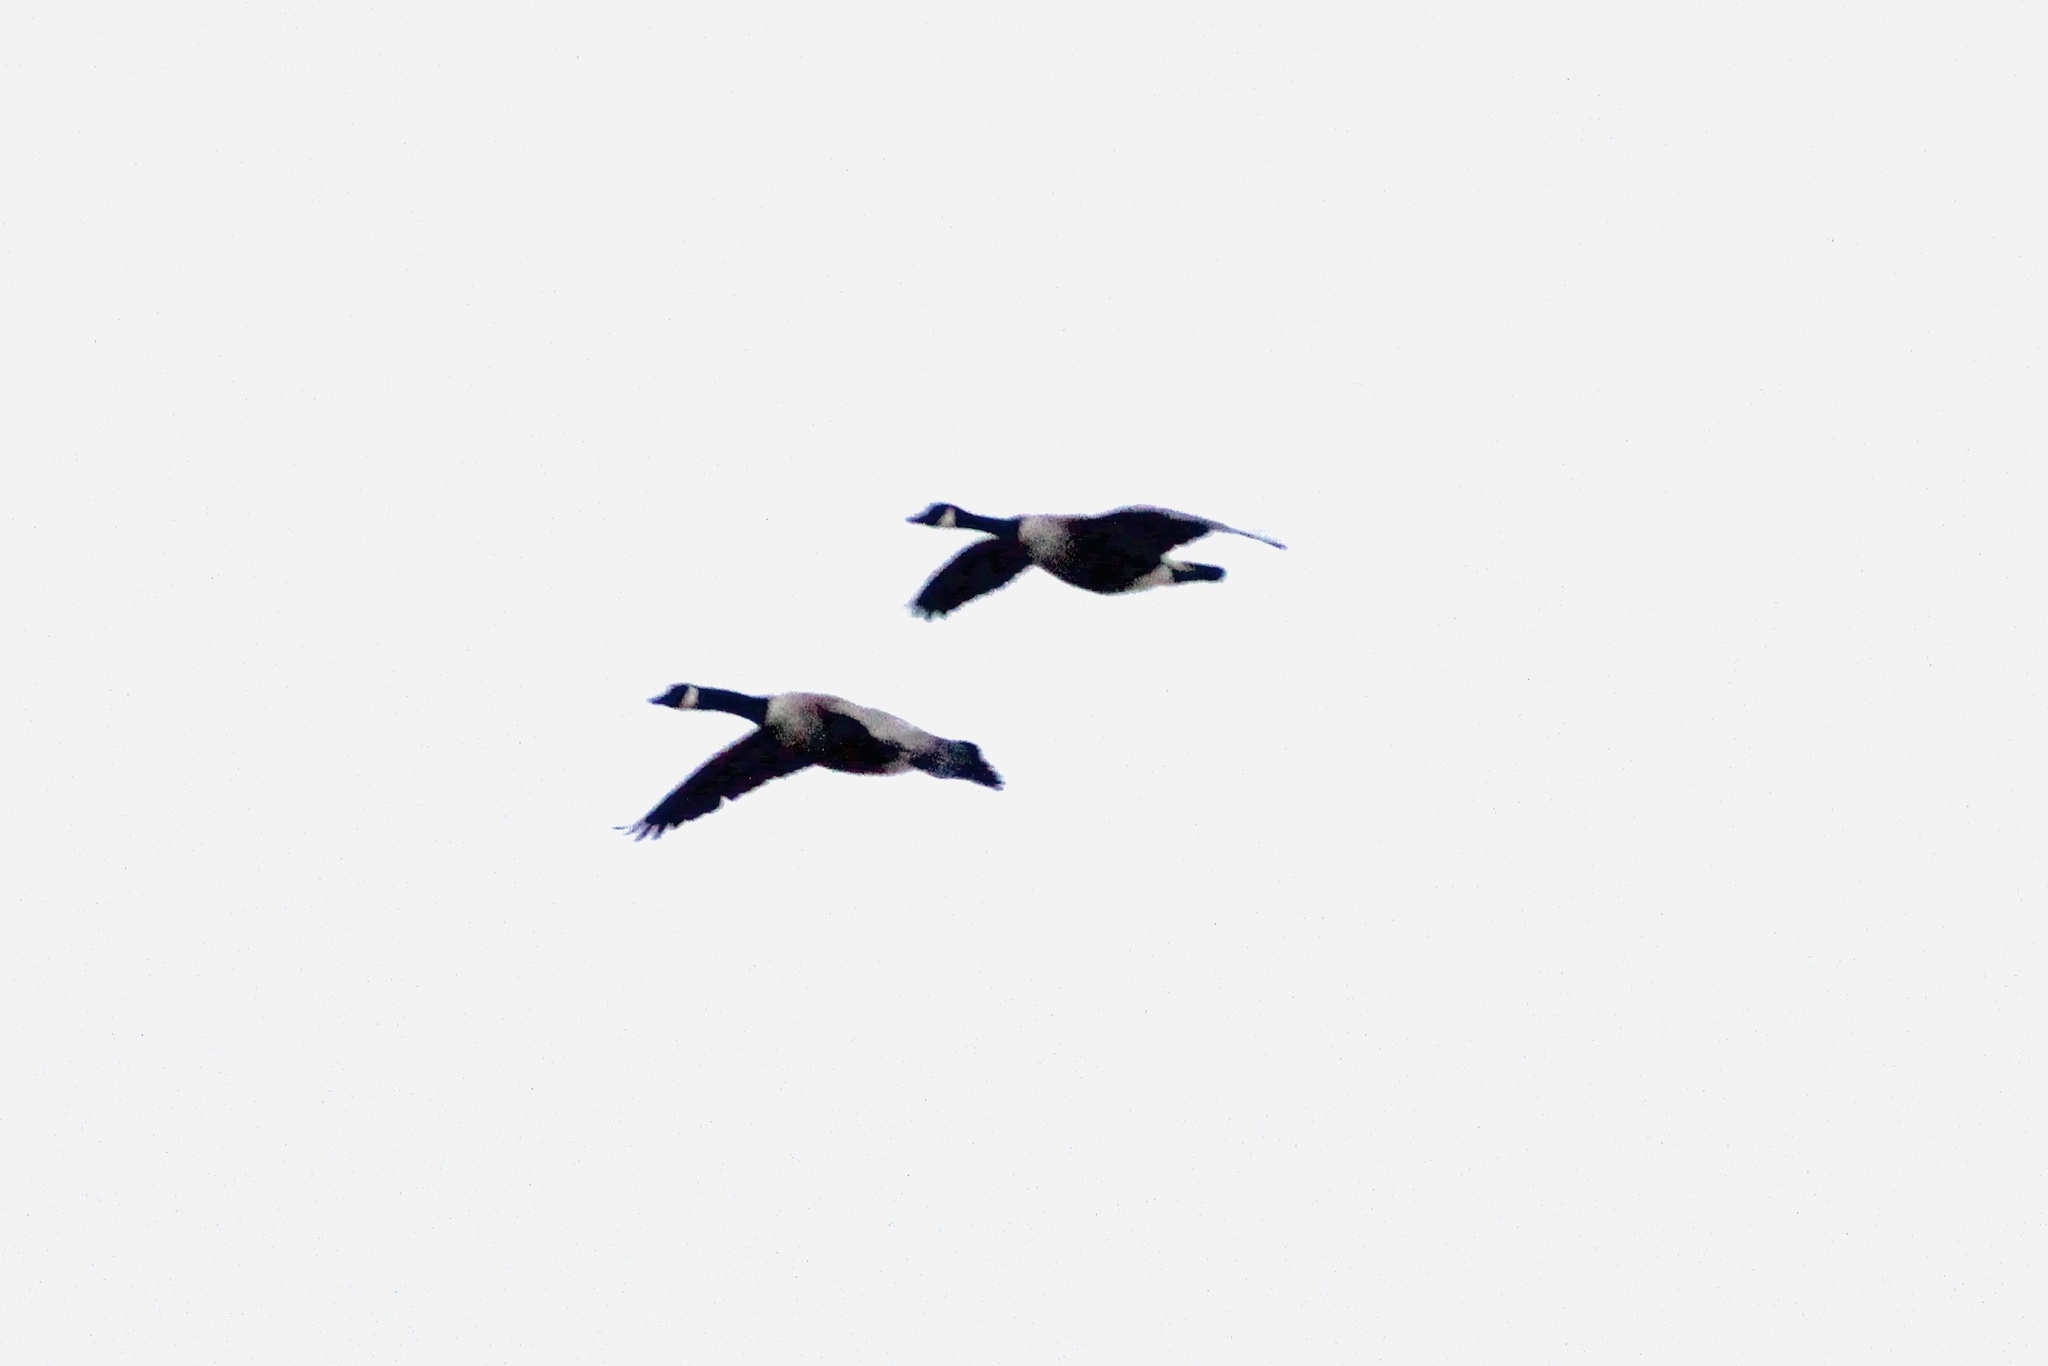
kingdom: Animalia
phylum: Chordata
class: Aves
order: Anseriformes
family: Anatidae
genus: Branta
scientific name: Branta canadensis
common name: Canada goose
